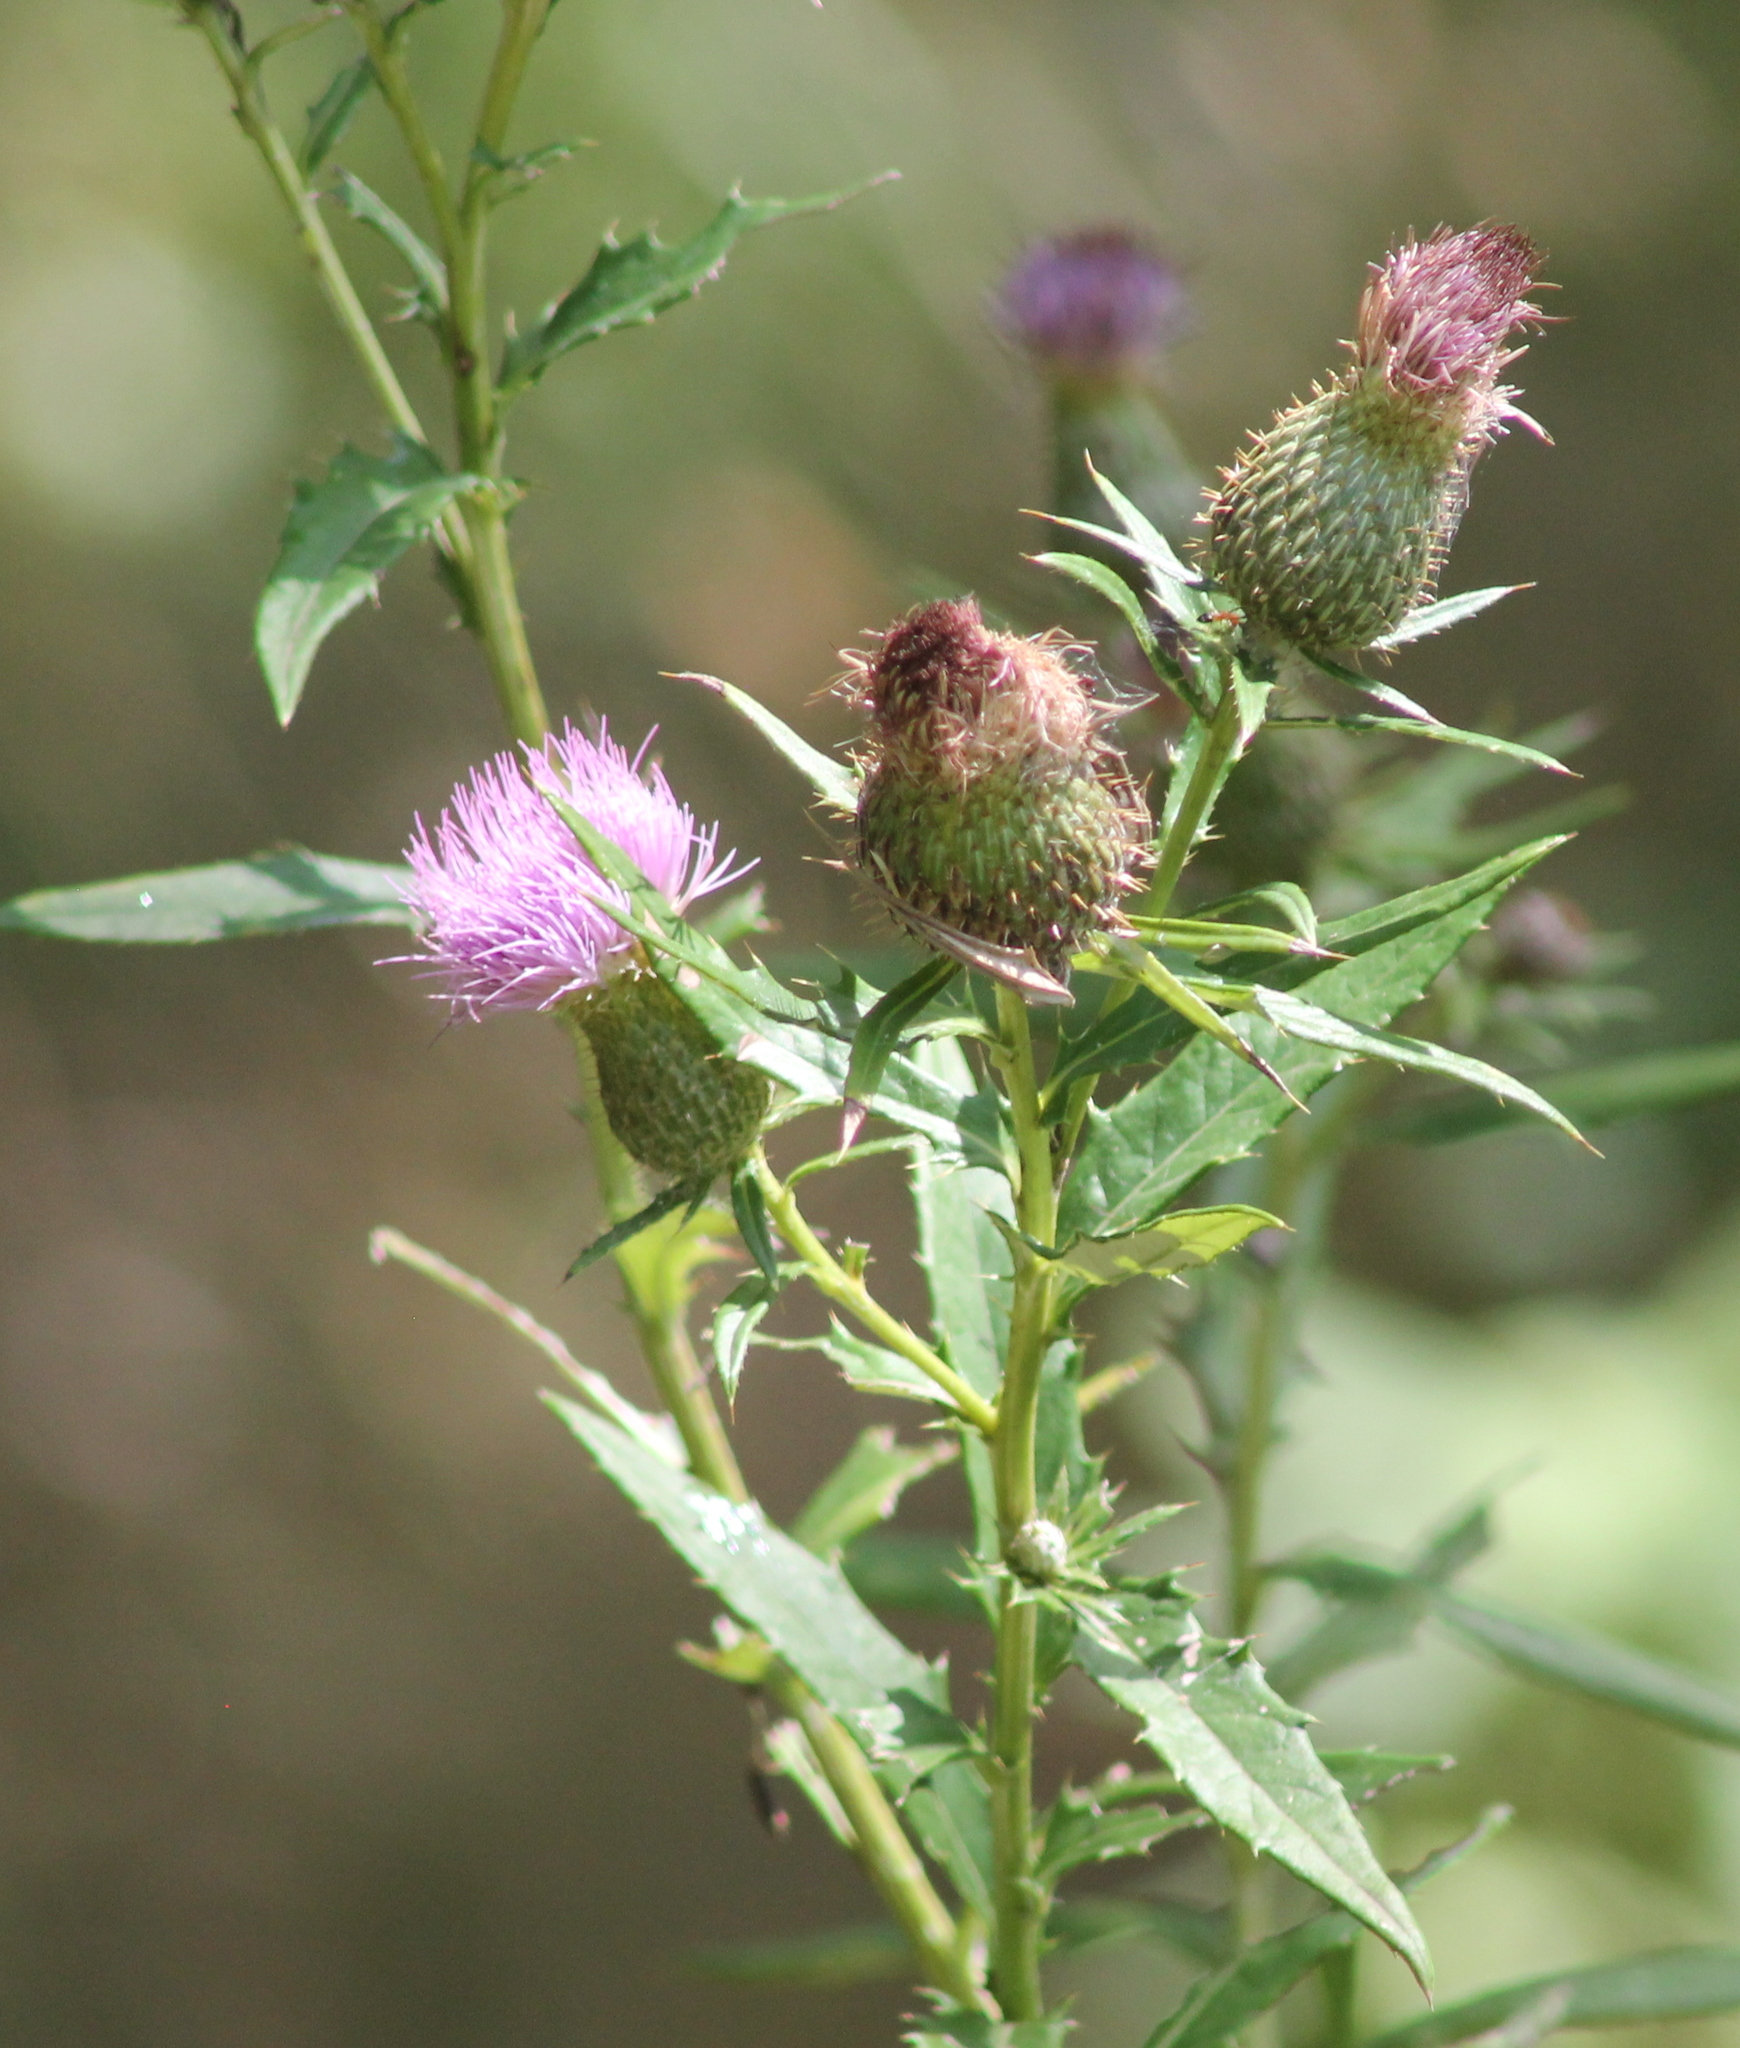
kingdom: Plantae
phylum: Tracheophyta
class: Magnoliopsida
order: Asterales
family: Asteraceae
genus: Cirsium
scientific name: Cirsium altissimum
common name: Roadside thistle
